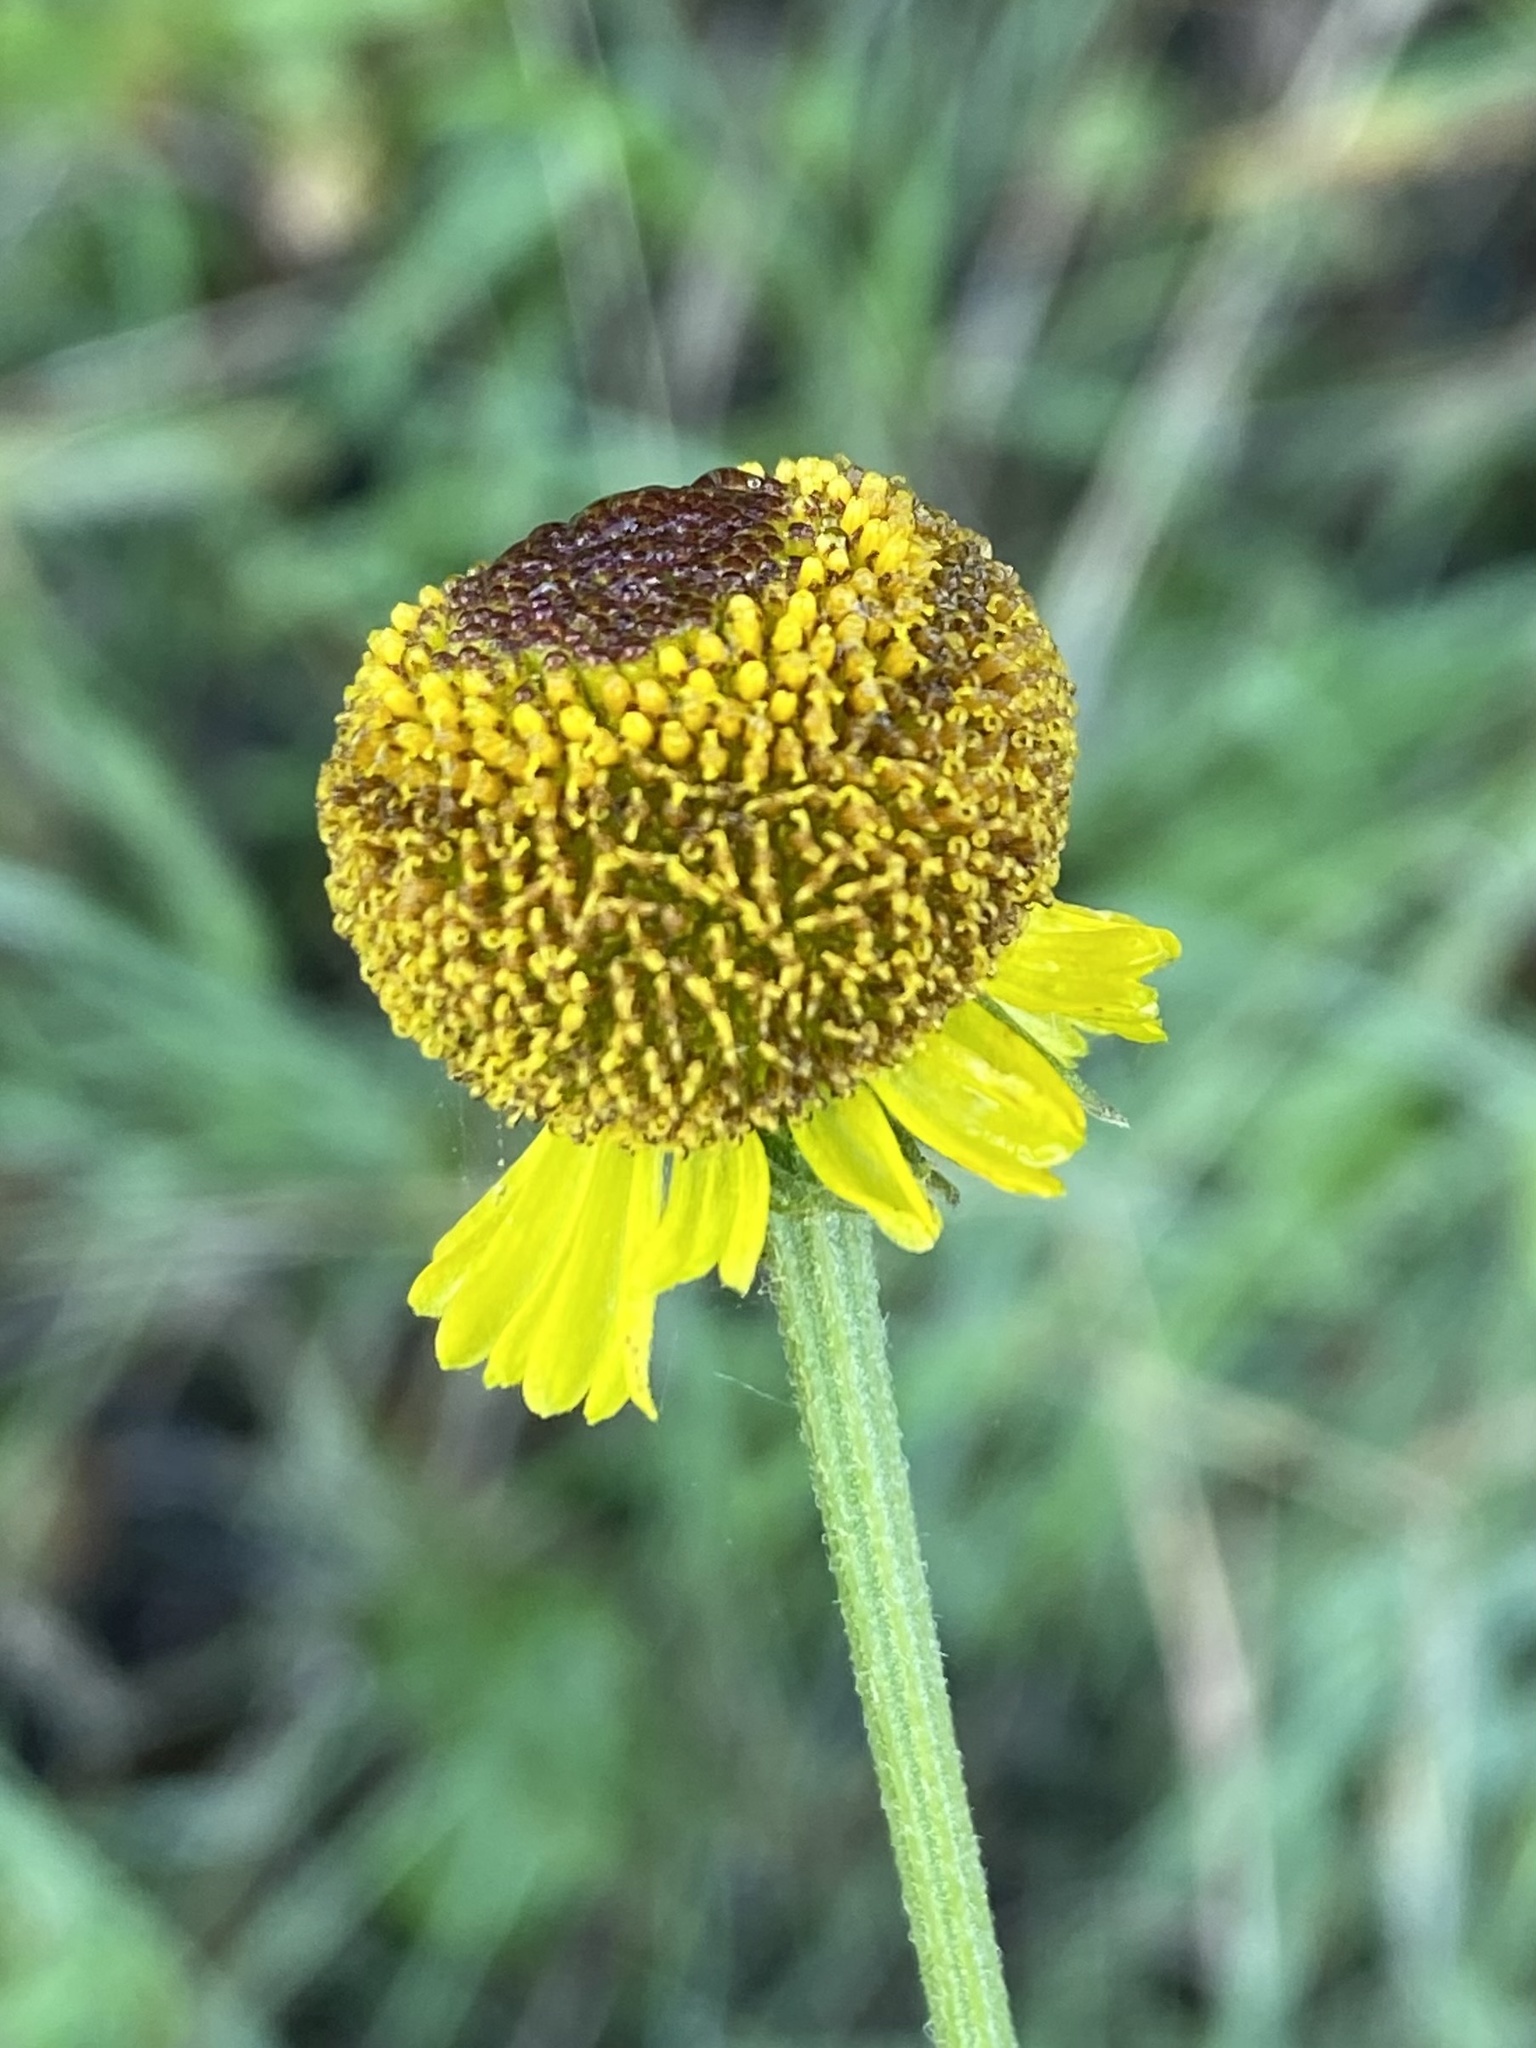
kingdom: Plantae
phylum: Tracheophyta
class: Magnoliopsida
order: Asterales
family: Asteraceae
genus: Helenium
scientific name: Helenium puberulum
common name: Sneezewort
